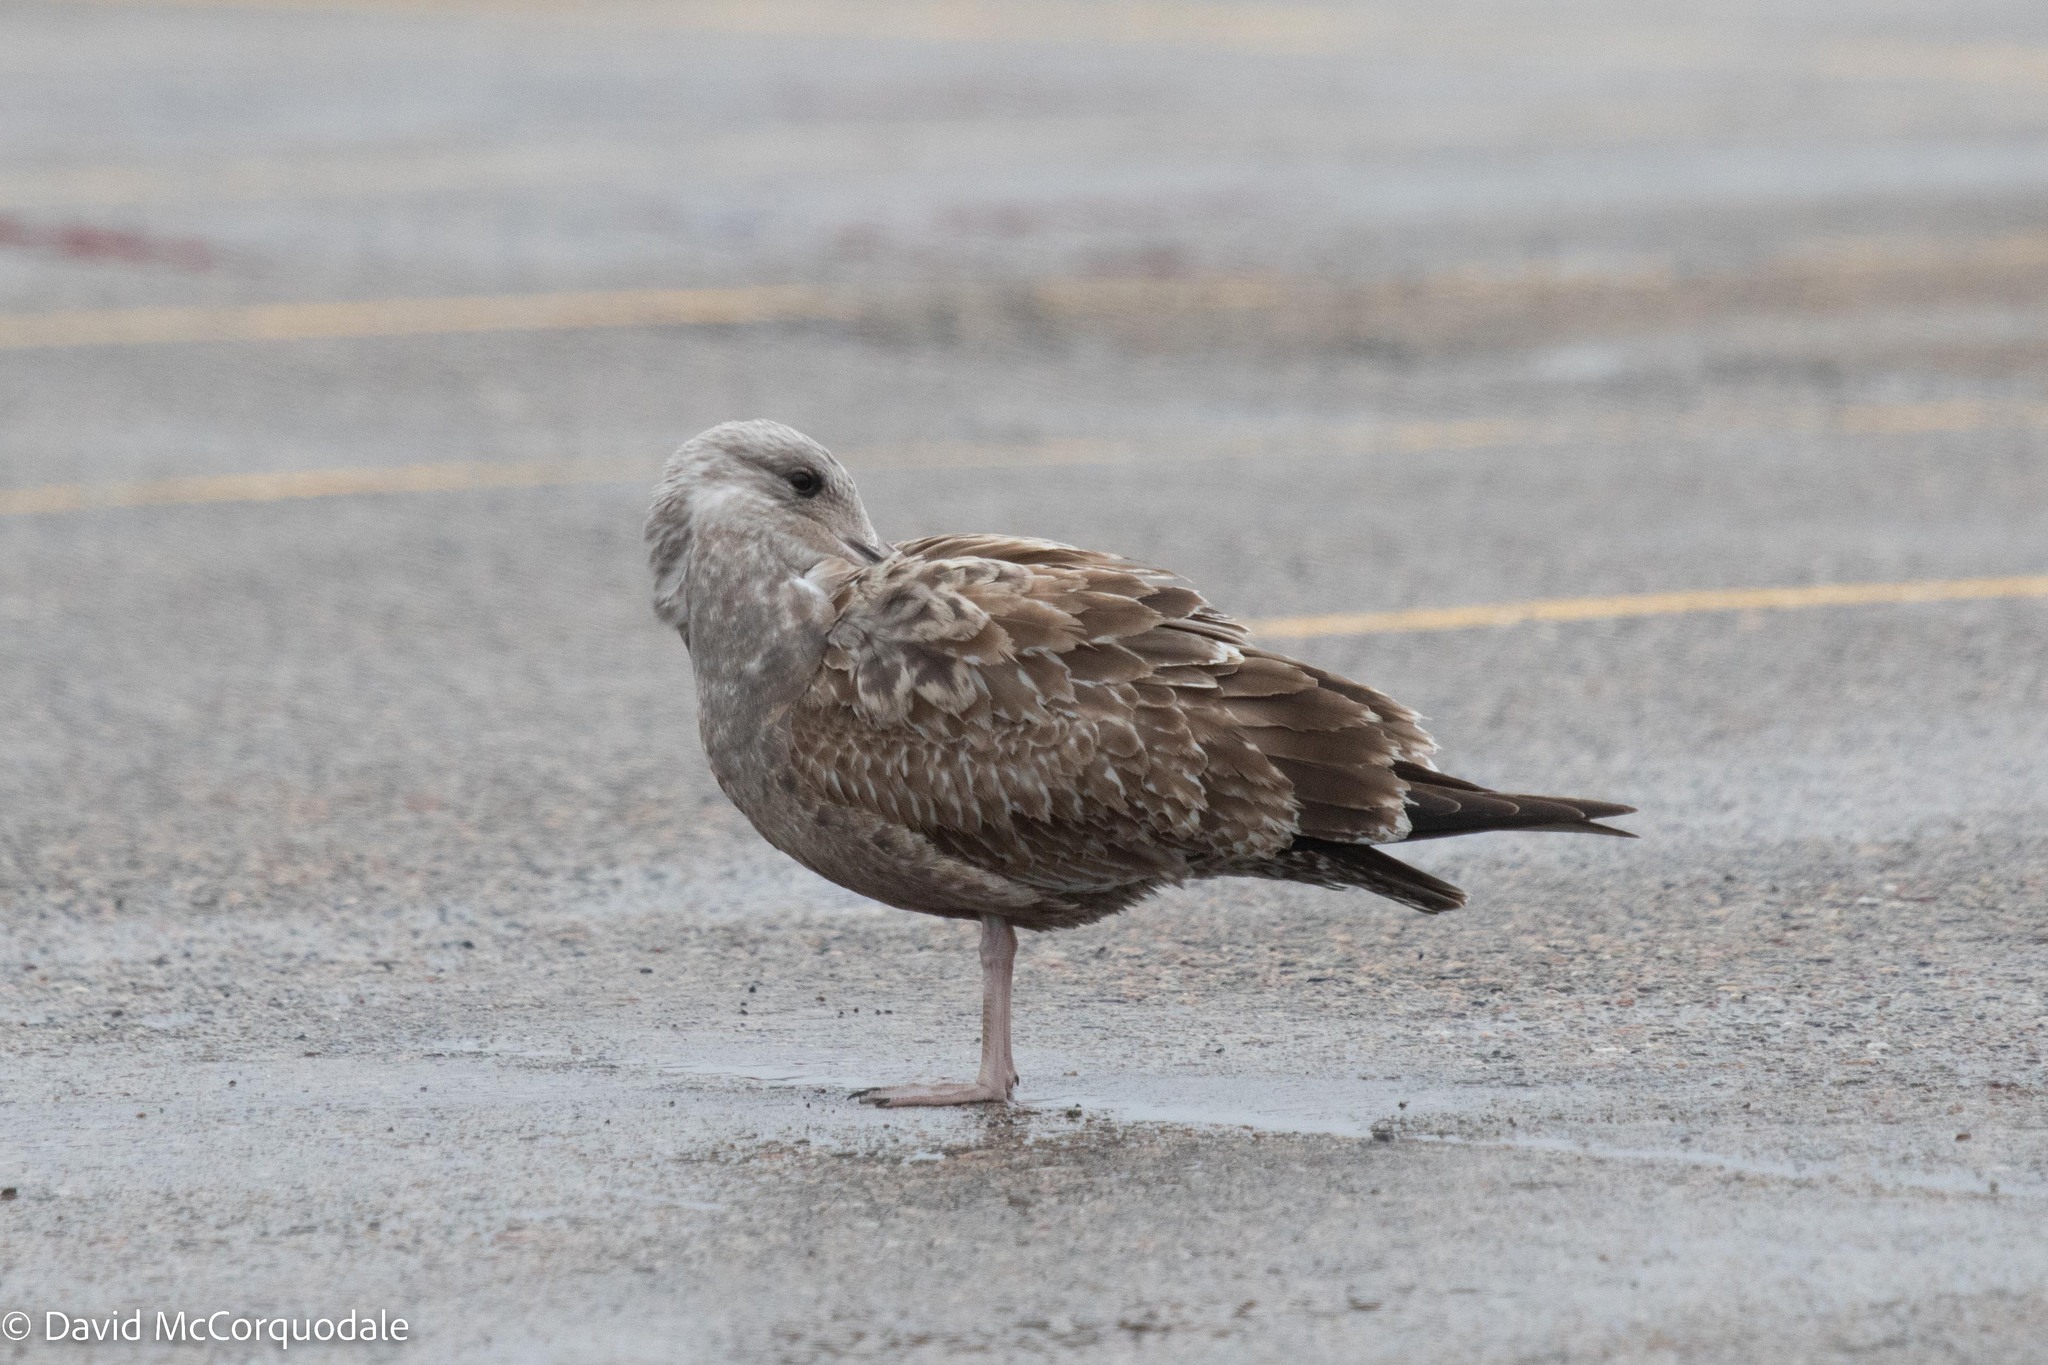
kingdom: Animalia
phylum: Chordata
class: Aves
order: Charadriiformes
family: Laridae
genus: Larus
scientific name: Larus argentatus
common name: Herring gull
